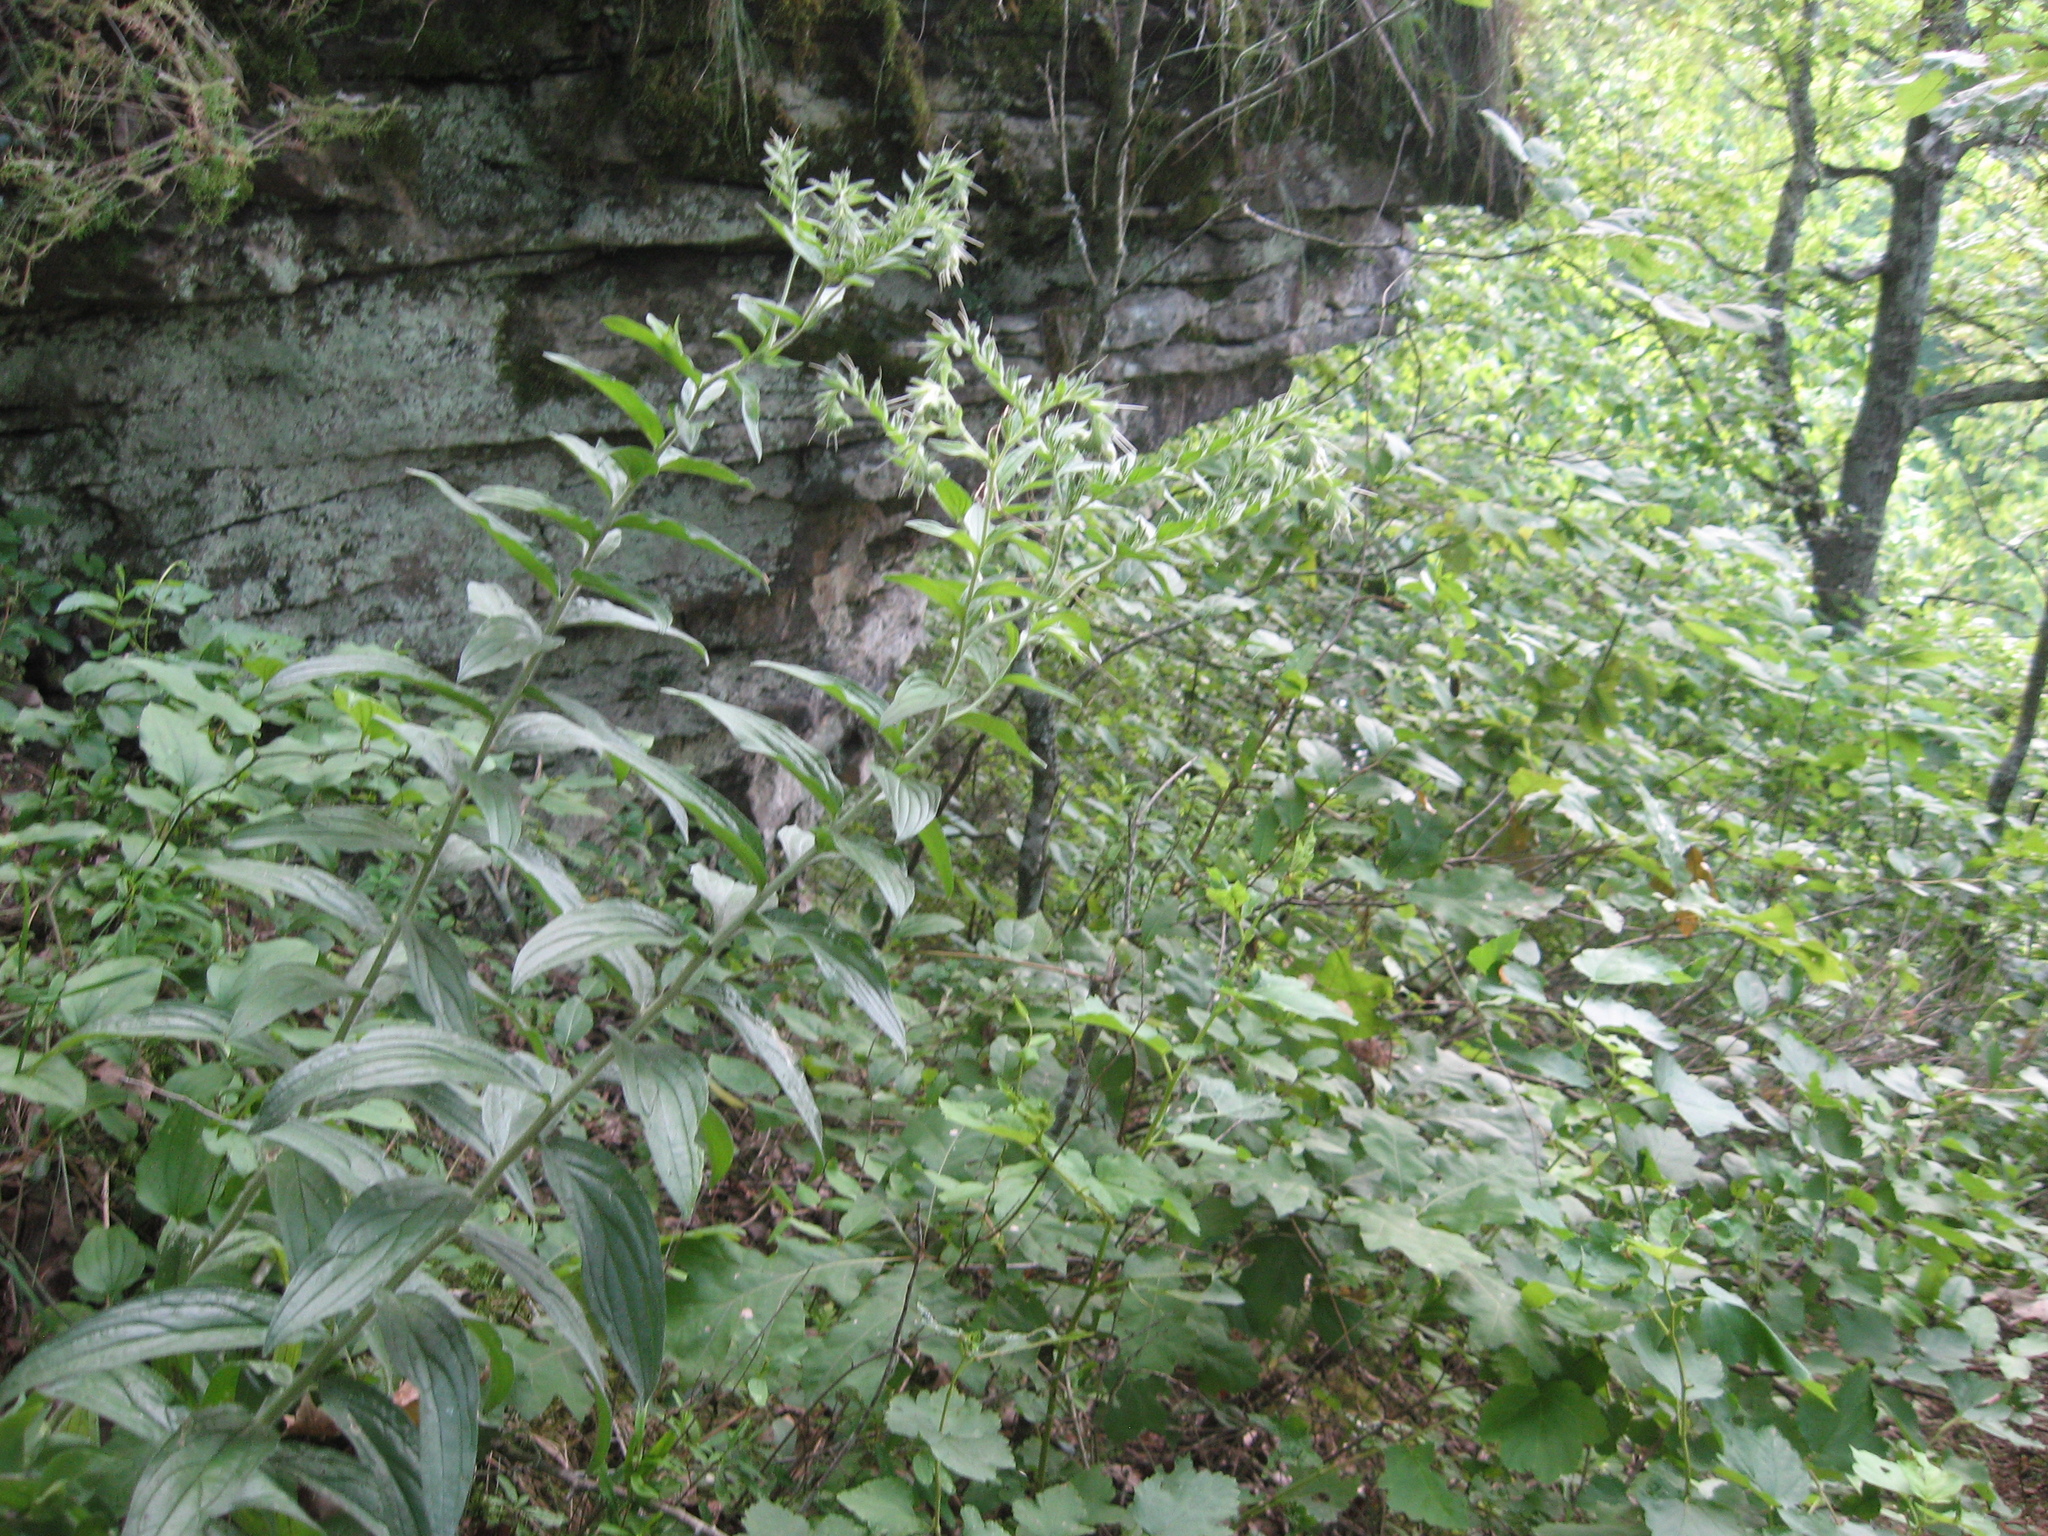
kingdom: Plantae
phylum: Tracheophyta
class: Magnoliopsida
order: Boraginales
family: Boraginaceae
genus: Lithospermum
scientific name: Lithospermum parviflorum
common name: Hairy false gromwell
